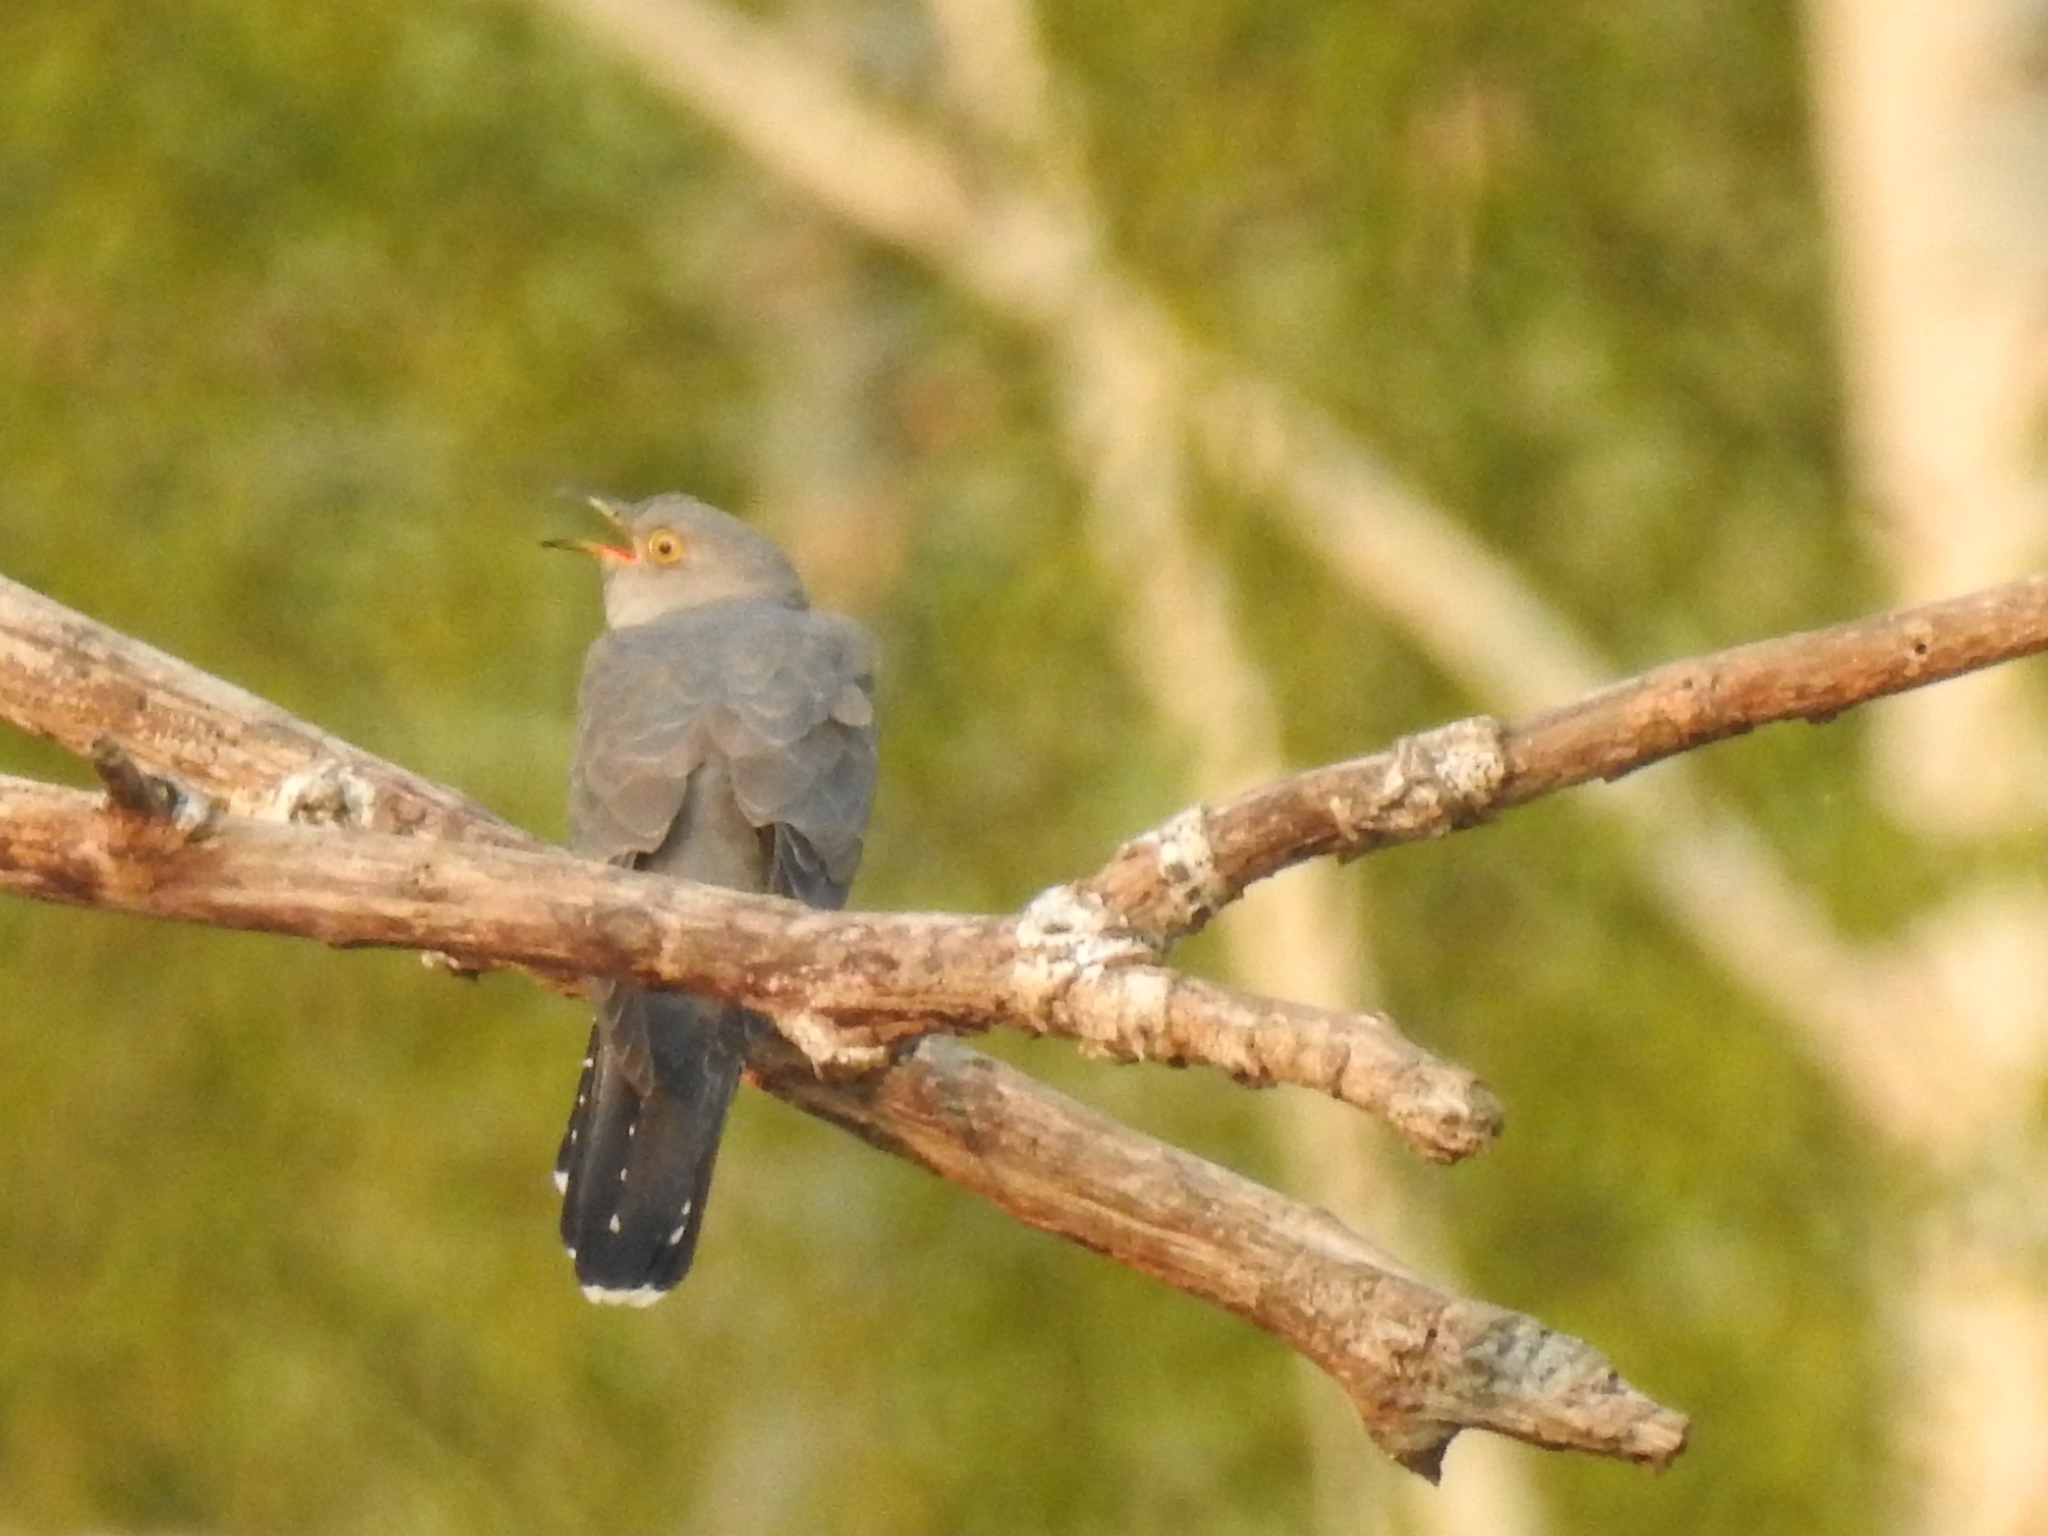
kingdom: Animalia
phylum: Chordata
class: Aves
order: Cuculiformes
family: Cuculidae
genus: Cuculus
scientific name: Cuculus canorus
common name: Common cuckoo
